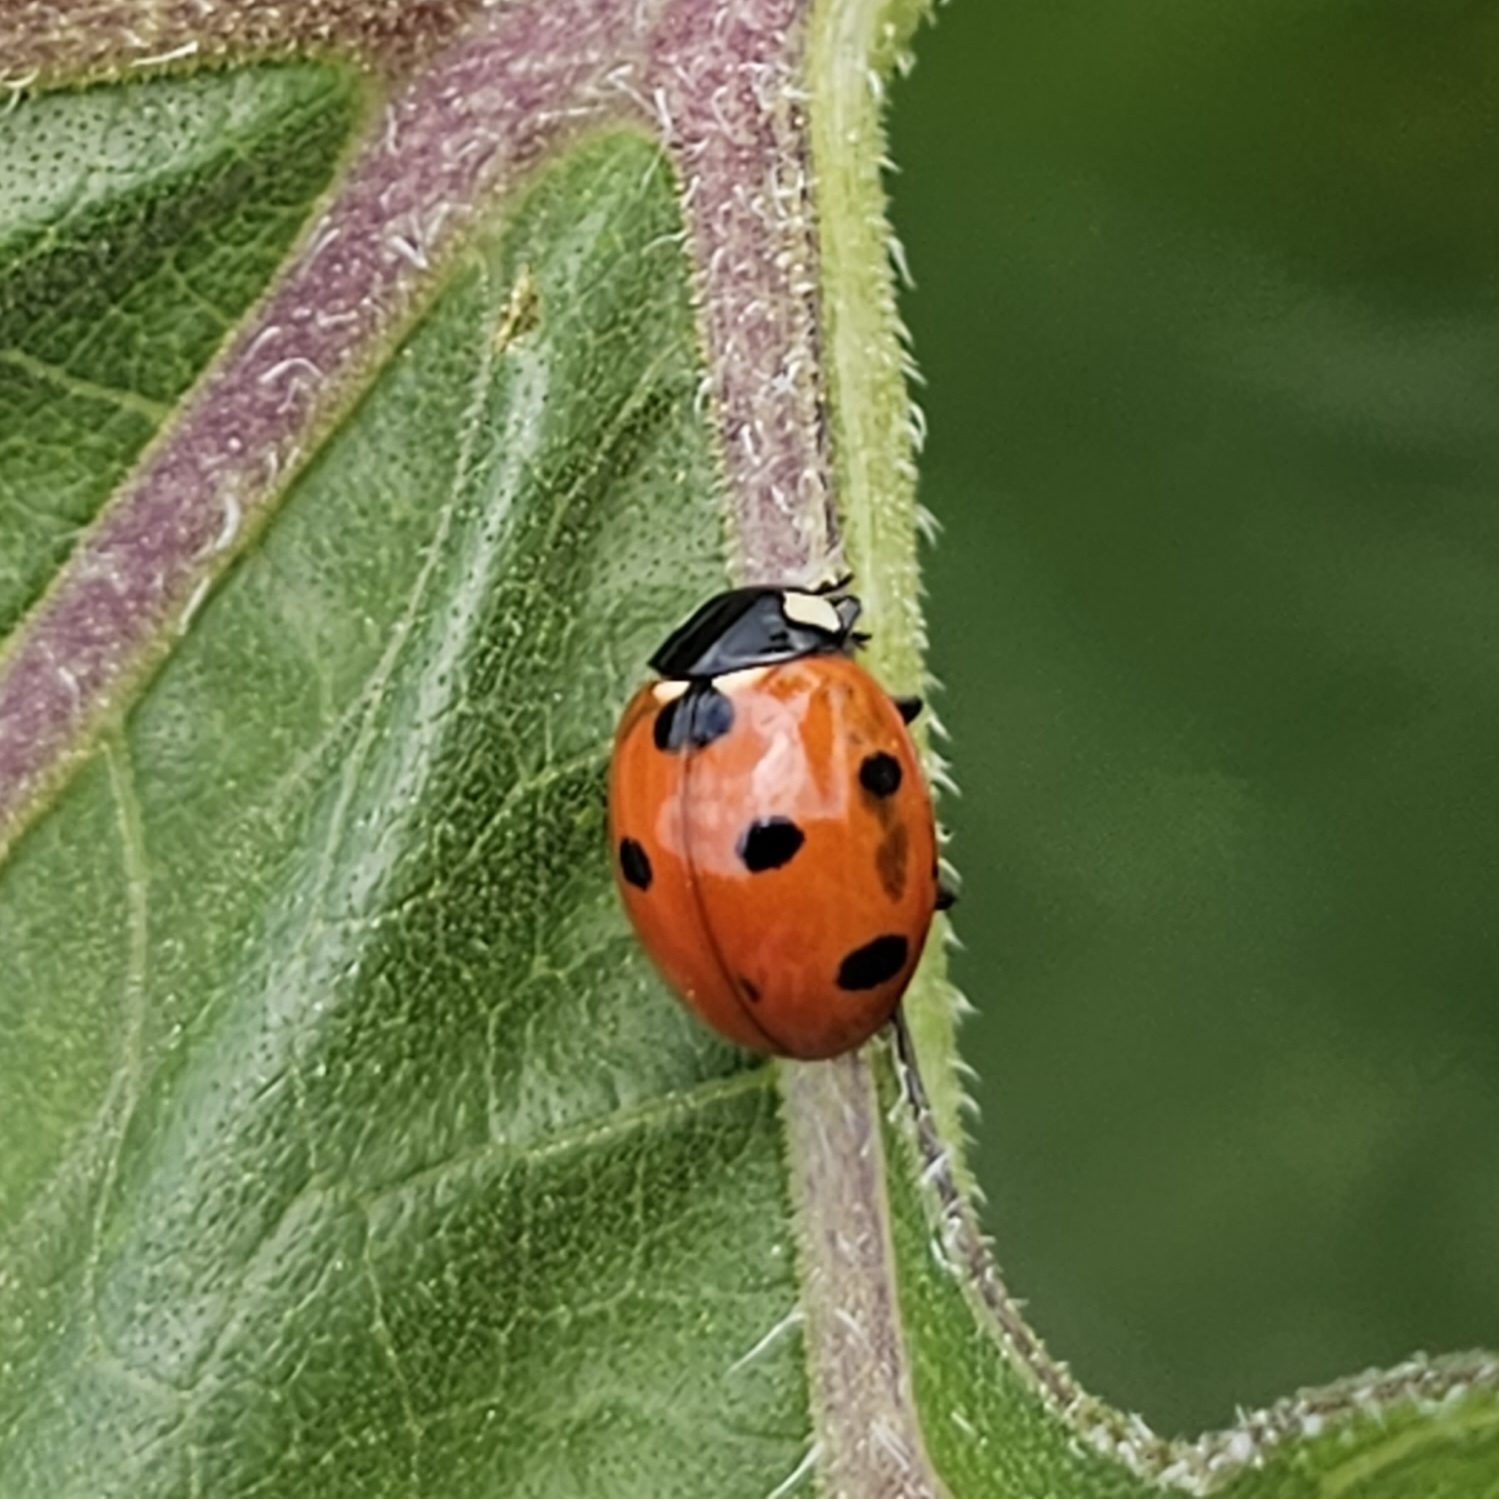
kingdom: Animalia
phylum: Arthropoda
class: Insecta
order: Coleoptera
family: Coccinellidae
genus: Coccinella
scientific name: Coccinella septempunctata
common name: Sevenspotted lady beetle
